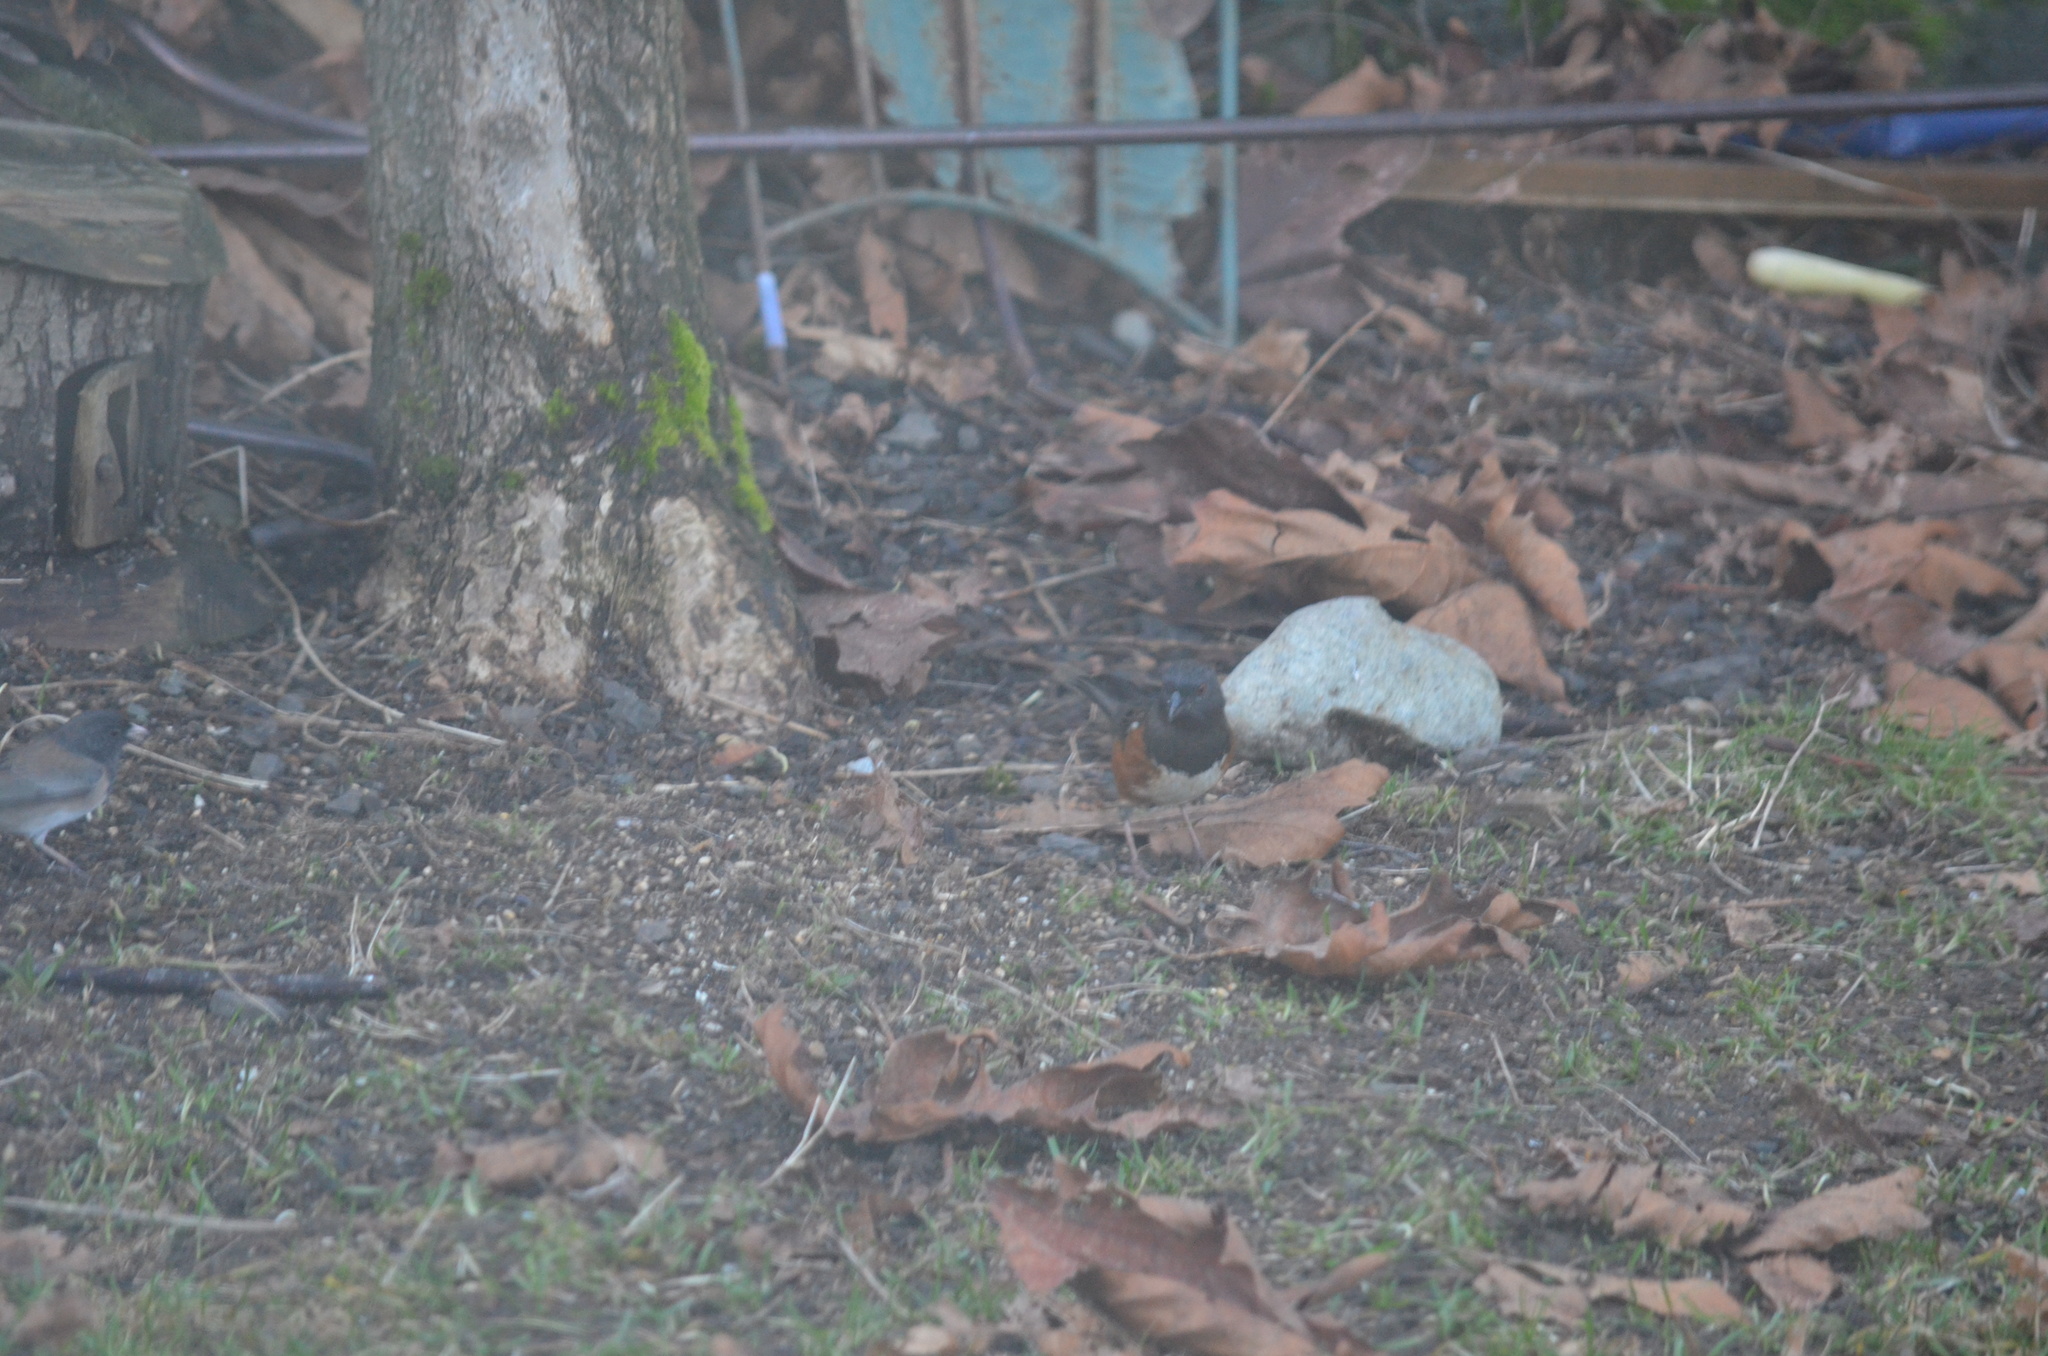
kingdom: Animalia
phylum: Chordata
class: Aves
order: Passeriformes
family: Passerellidae
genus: Pipilo
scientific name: Pipilo maculatus
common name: Spotted towhee
